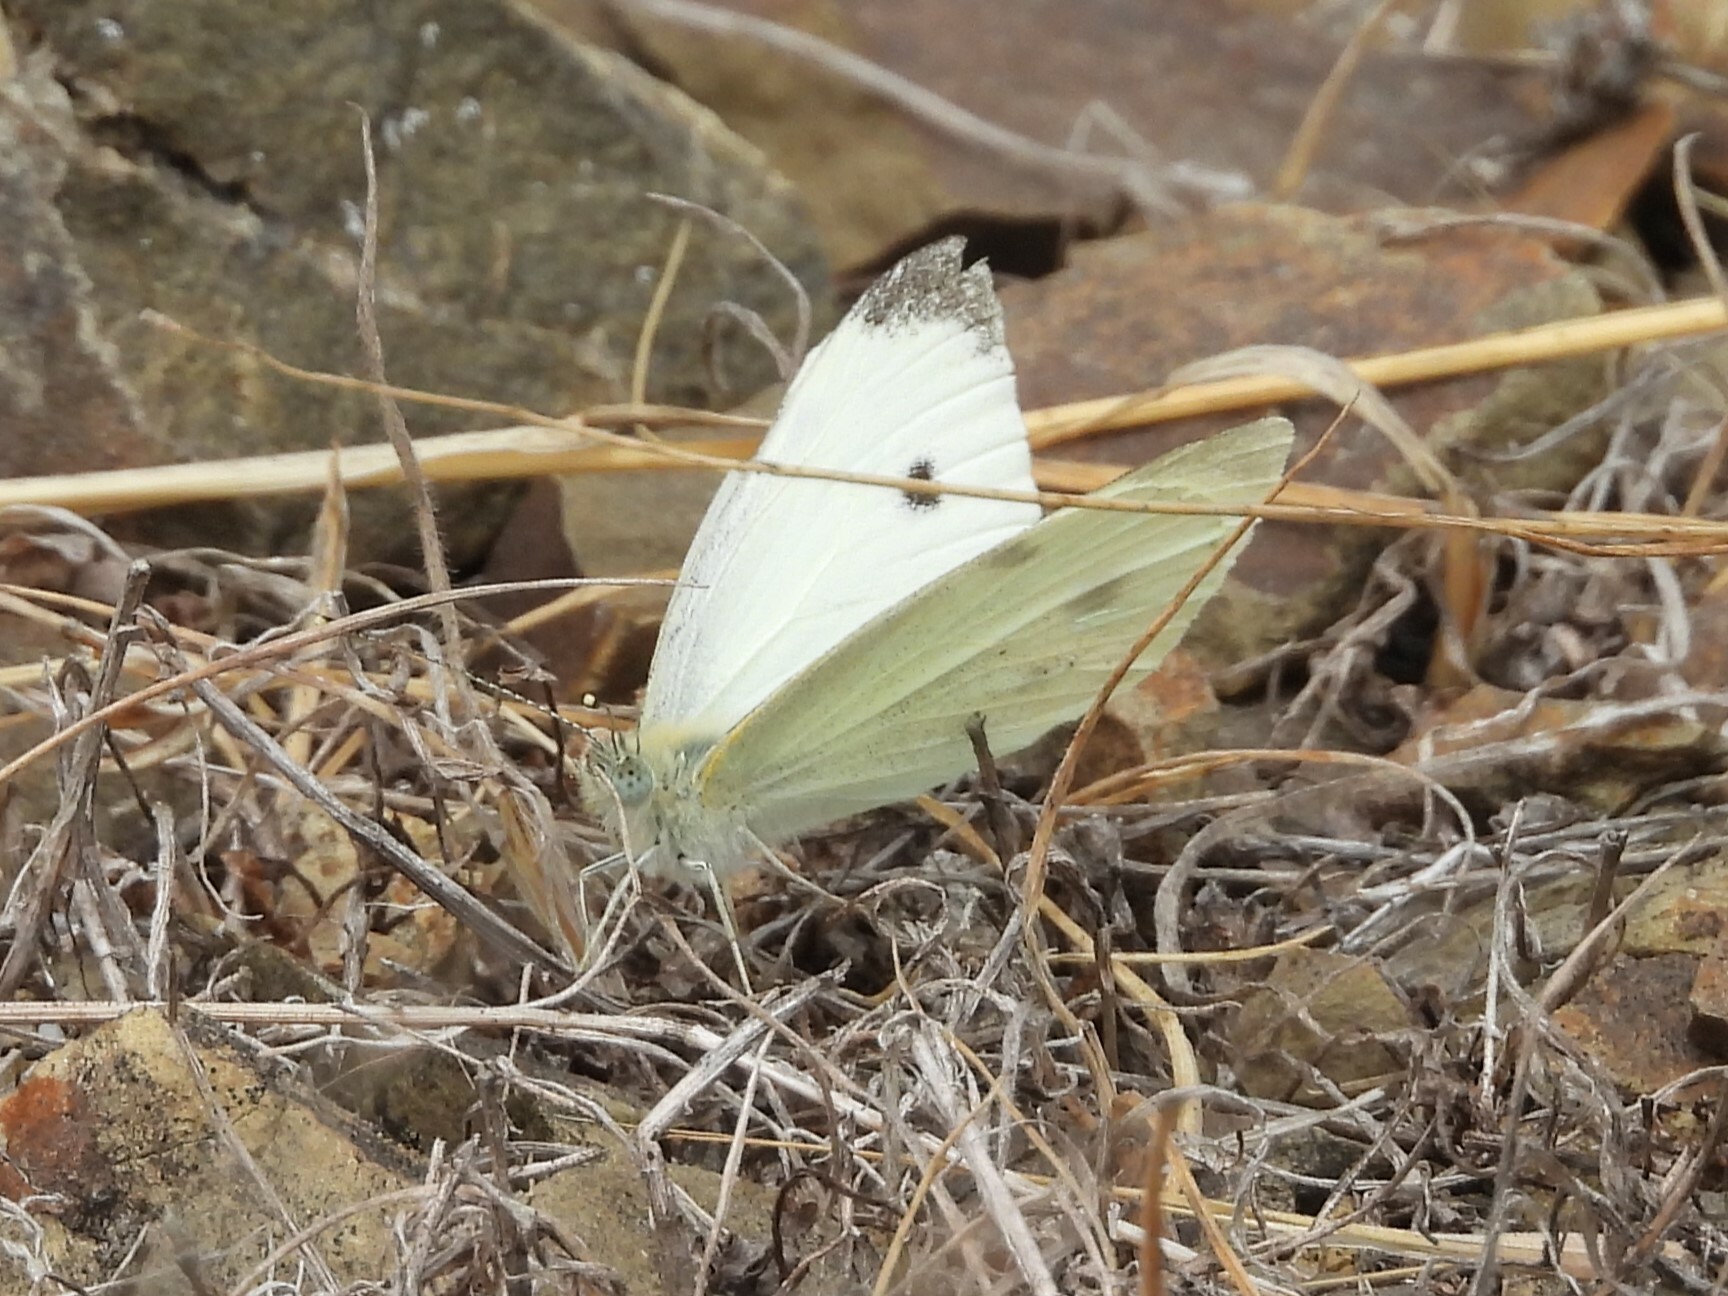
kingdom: Animalia
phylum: Arthropoda
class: Insecta
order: Lepidoptera
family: Pieridae
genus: Pieris
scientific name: Pieris rapae
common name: Small white
